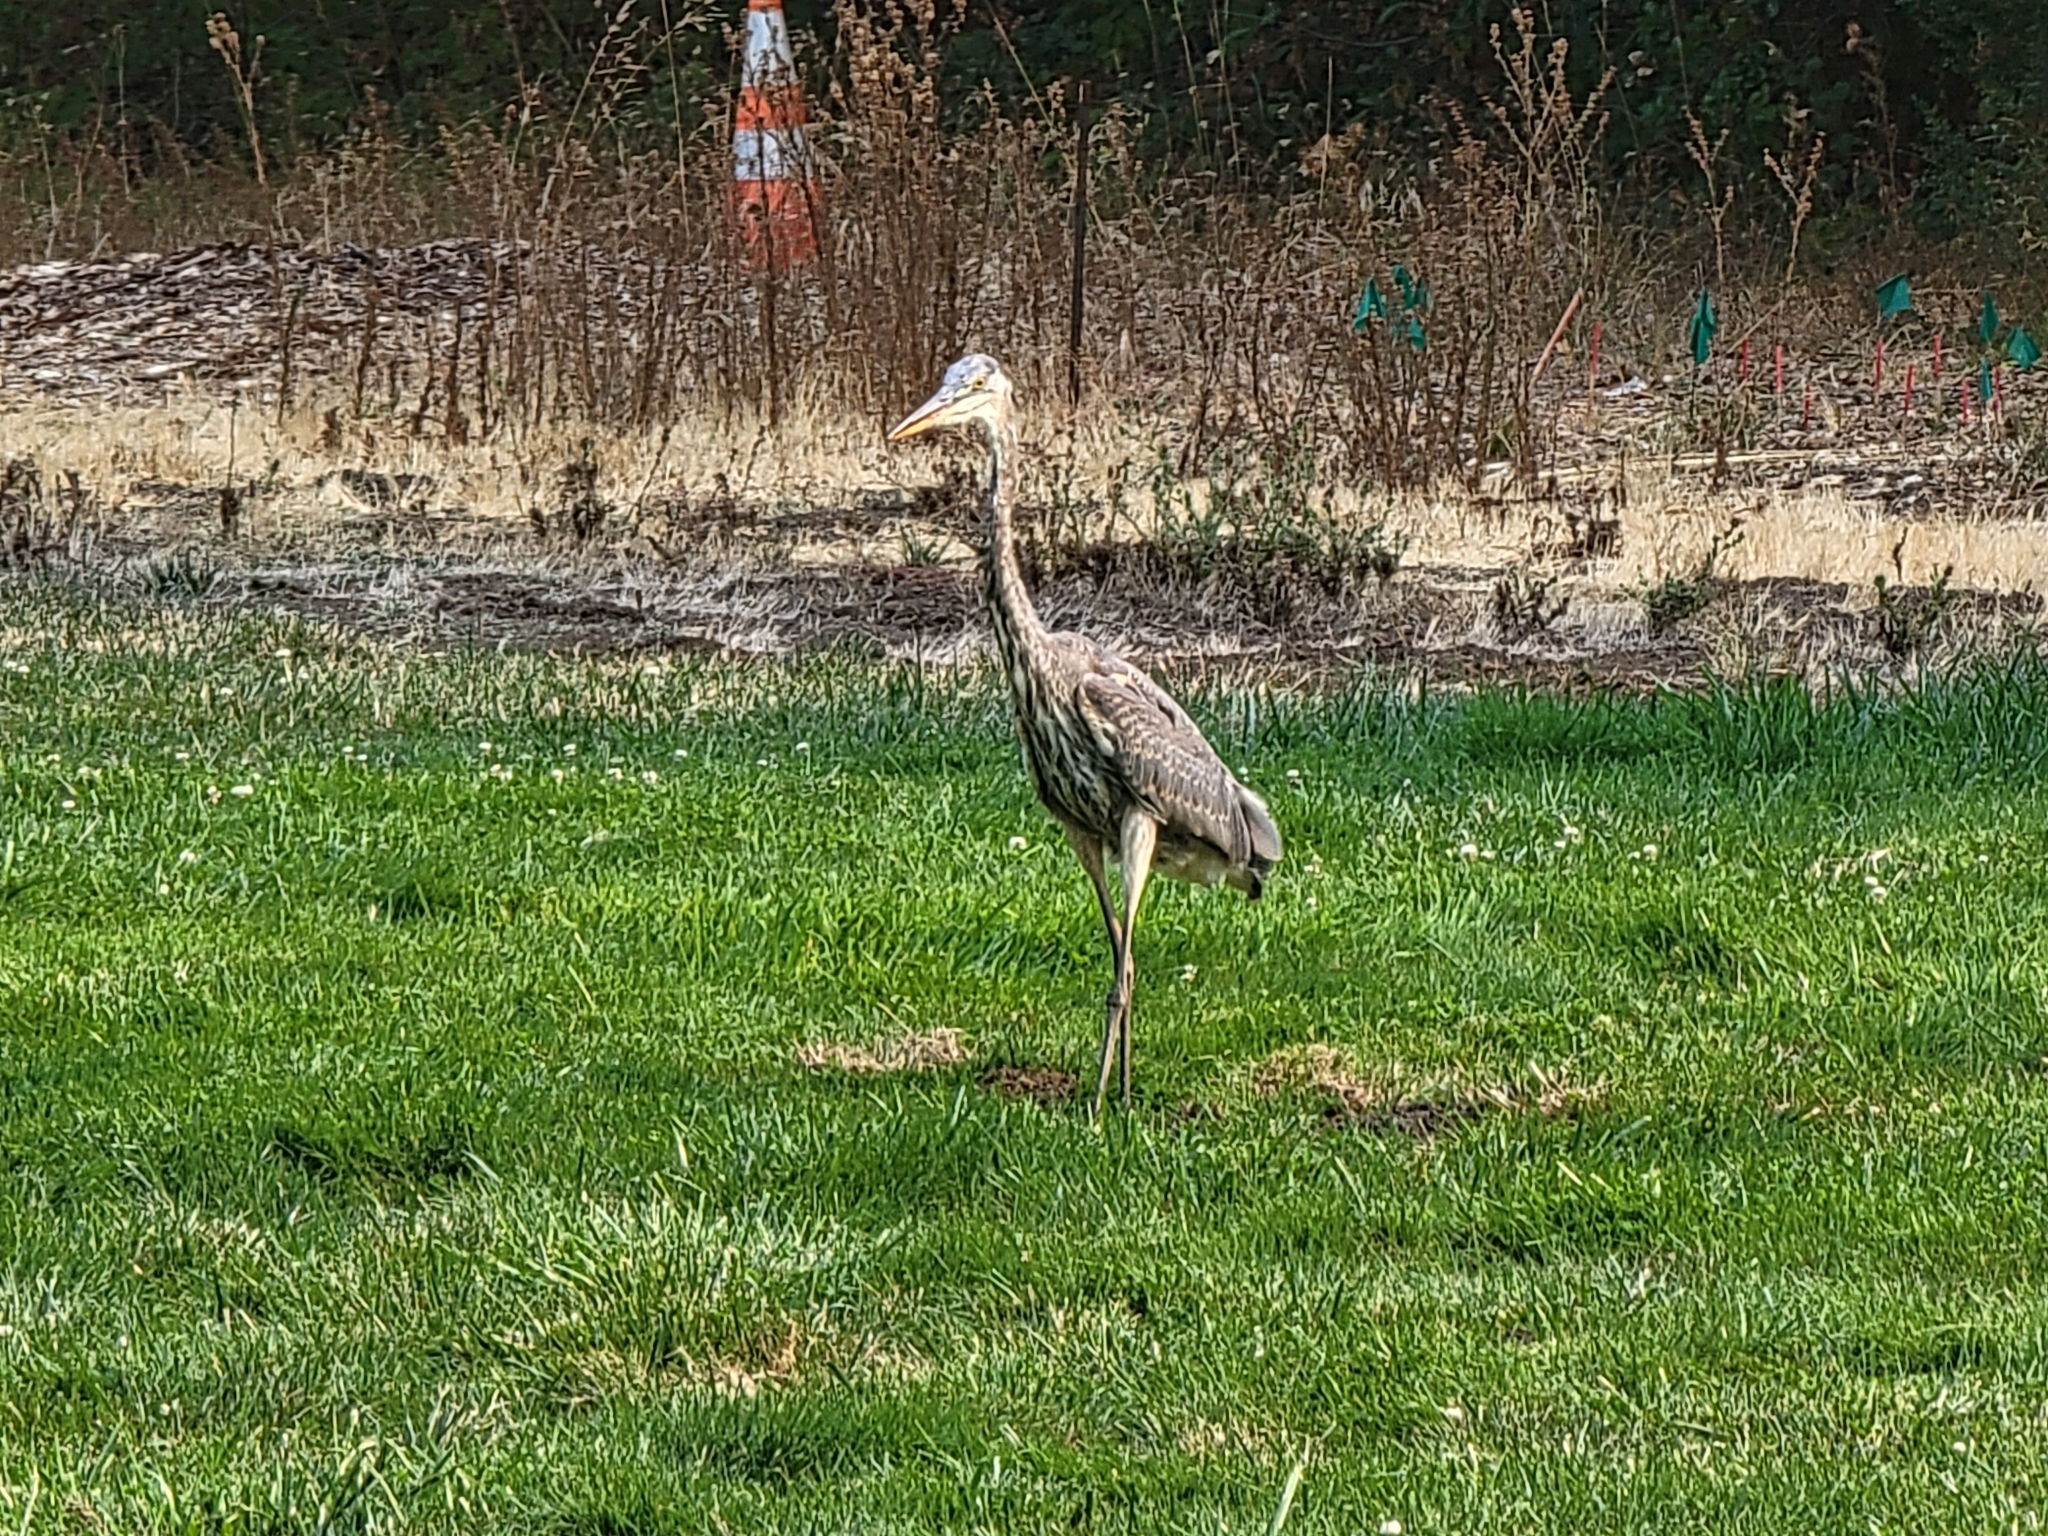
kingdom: Animalia
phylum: Chordata
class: Aves
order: Pelecaniformes
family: Ardeidae
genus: Ardea
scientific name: Ardea herodias
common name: Great blue heron
